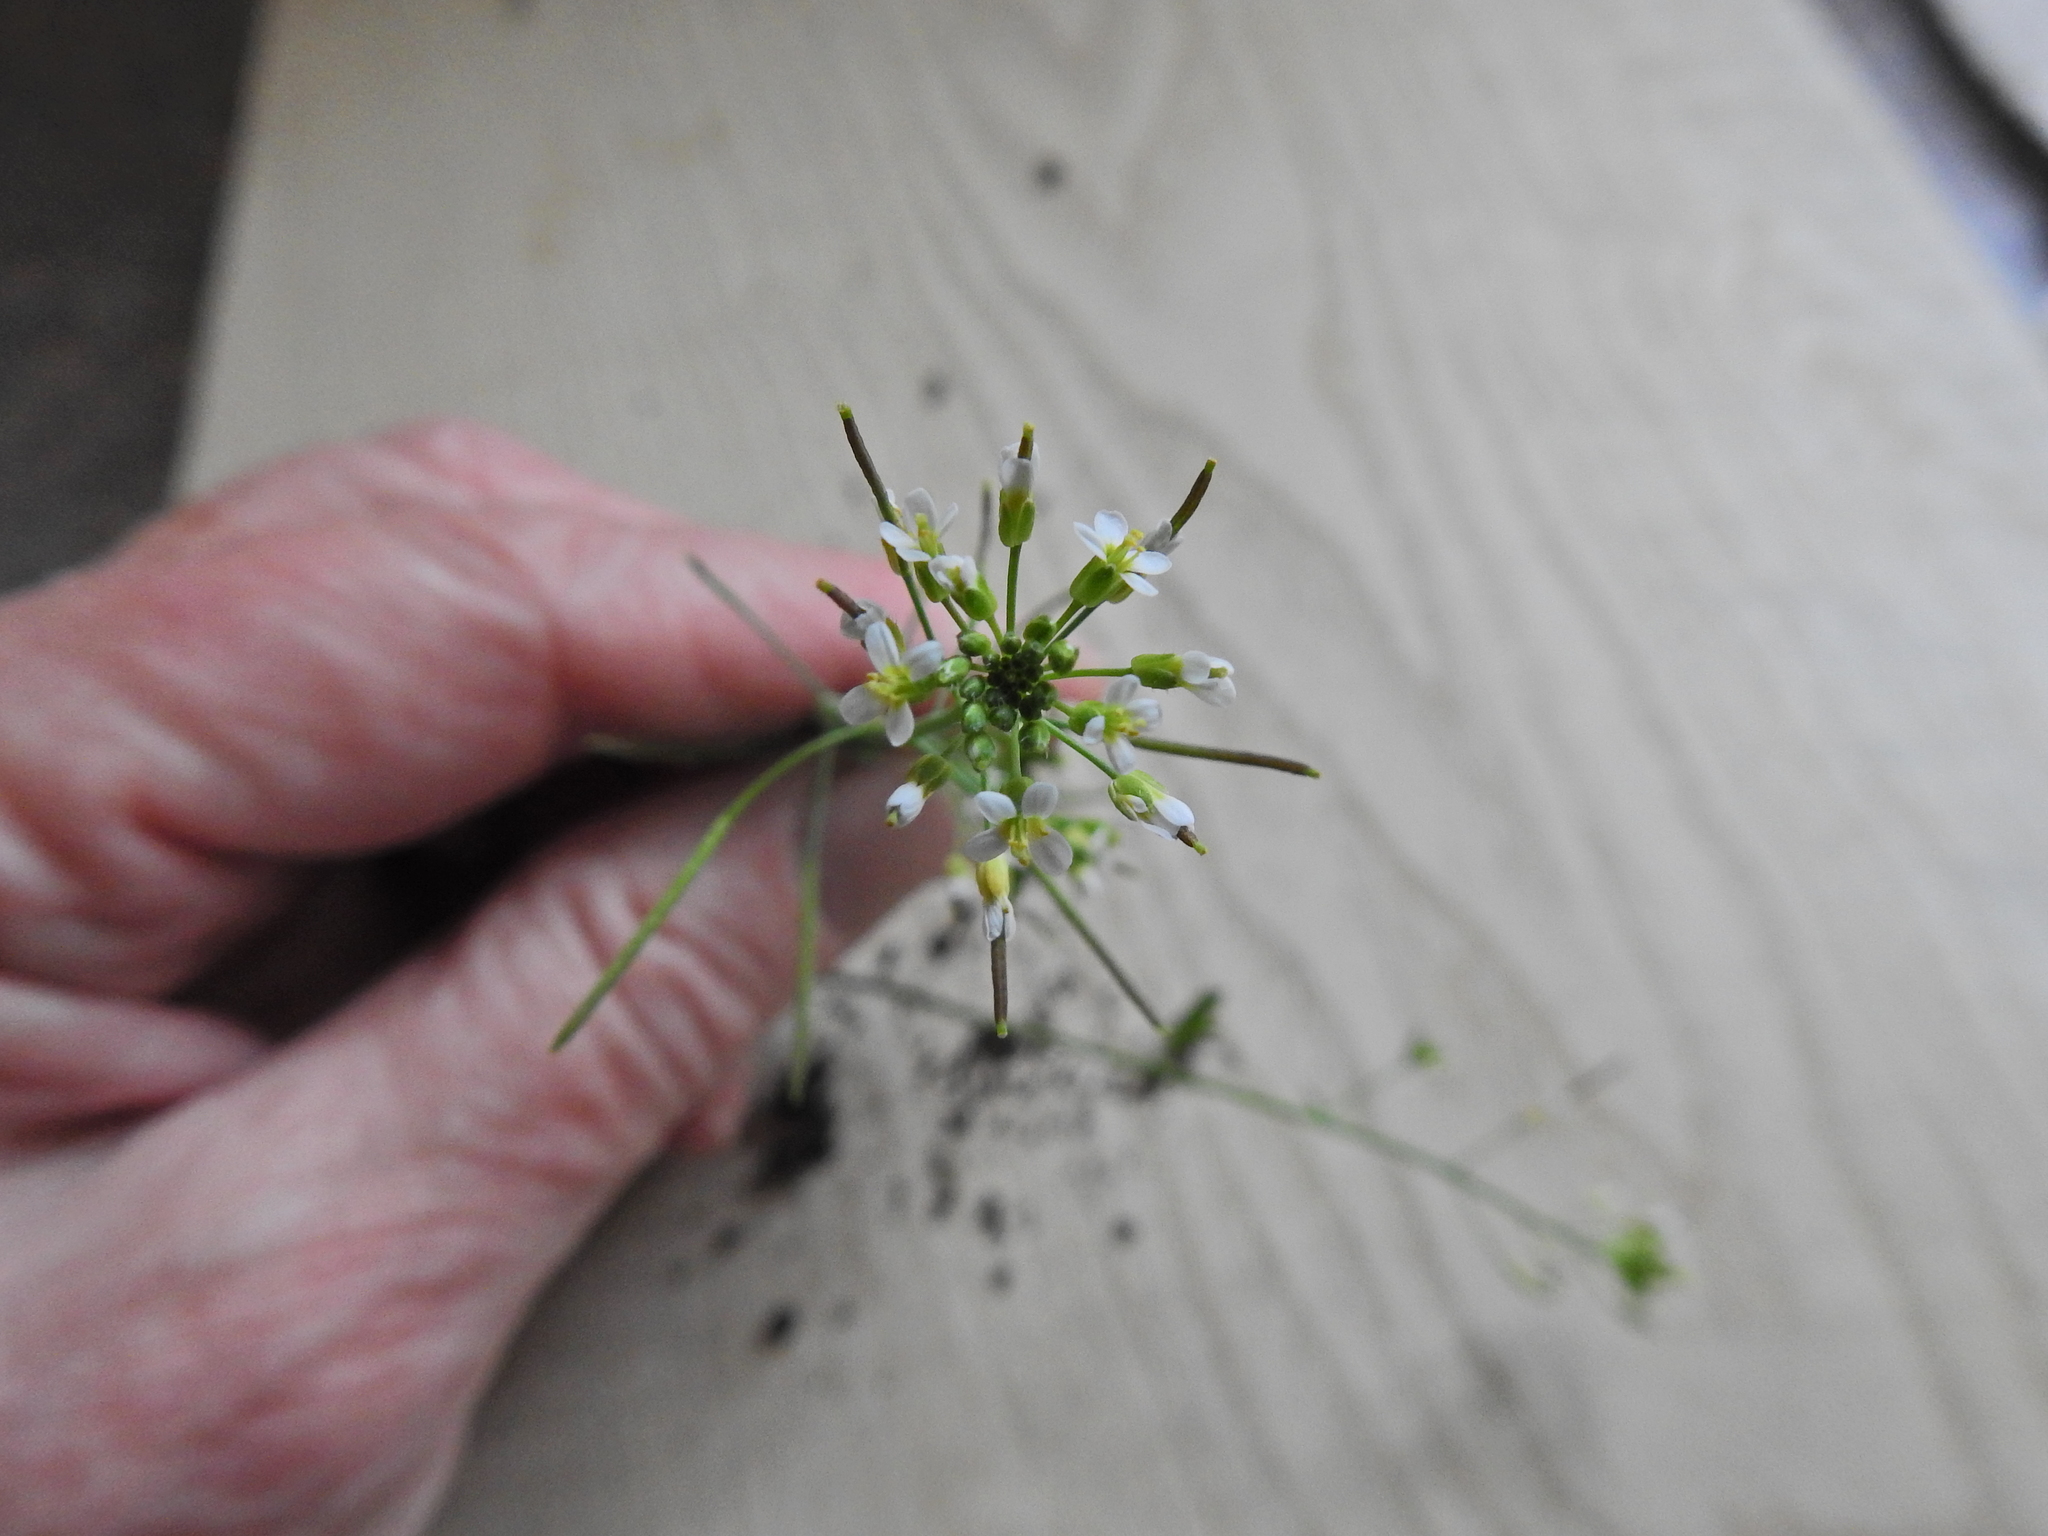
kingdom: Plantae
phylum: Tracheophyta
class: Magnoliopsida
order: Brassicales
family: Brassicaceae
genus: Arabidopsis
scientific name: Arabidopsis thaliana
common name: Thale cress
